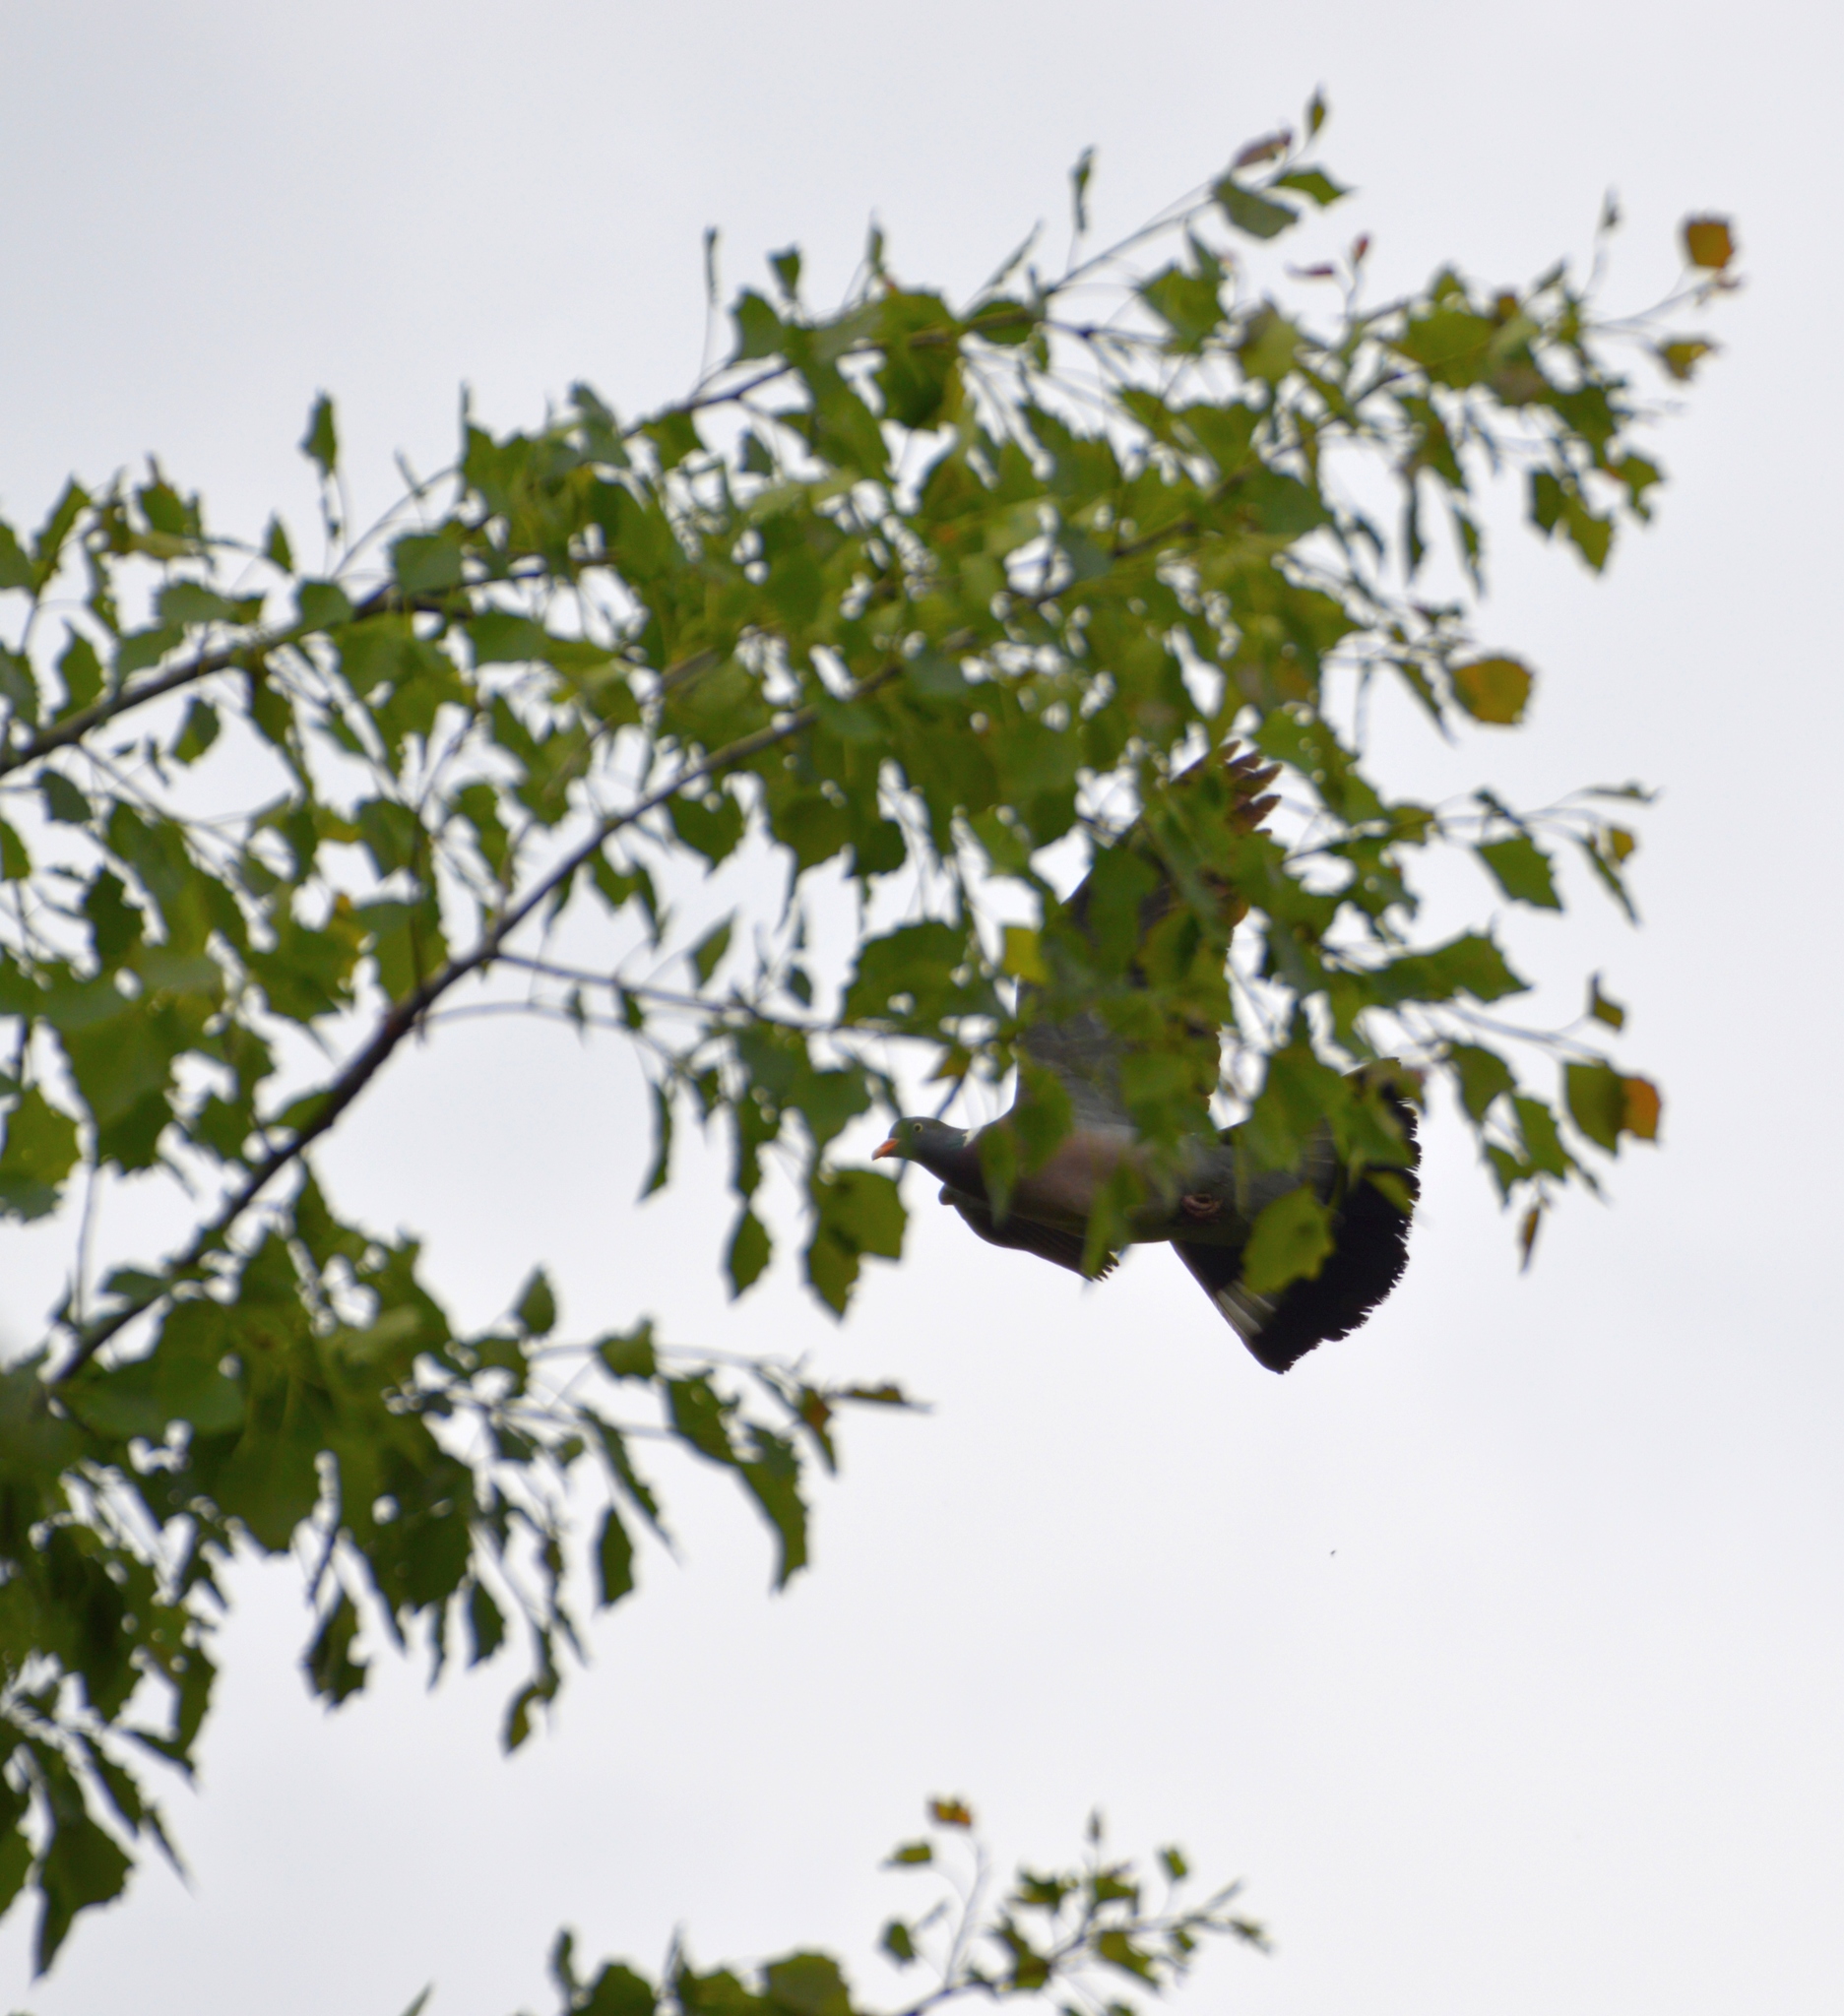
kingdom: Animalia
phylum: Chordata
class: Aves
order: Columbiformes
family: Columbidae
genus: Columba
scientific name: Columba palumbus
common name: Common wood pigeon
